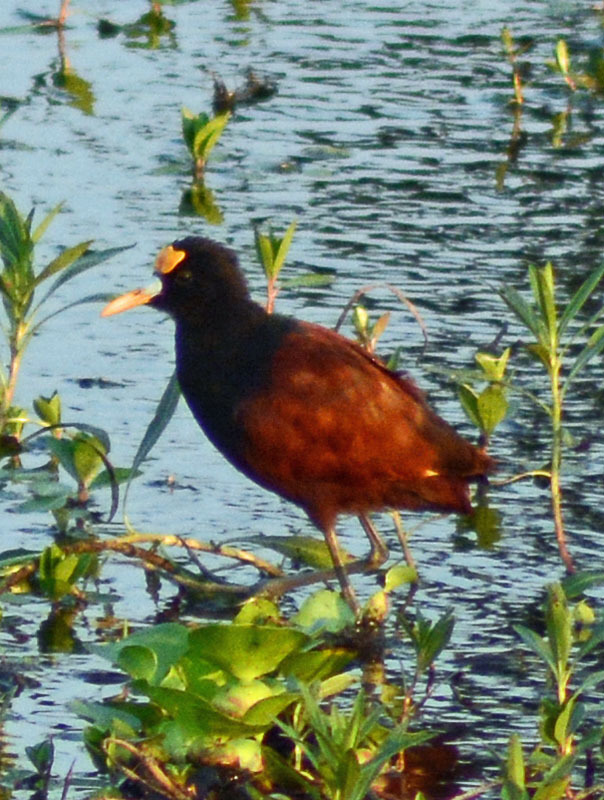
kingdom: Animalia
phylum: Chordata
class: Aves
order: Charadriiformes
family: Jacanidae
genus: Jacana
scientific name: Jacana spinosa
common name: Northern jacana
